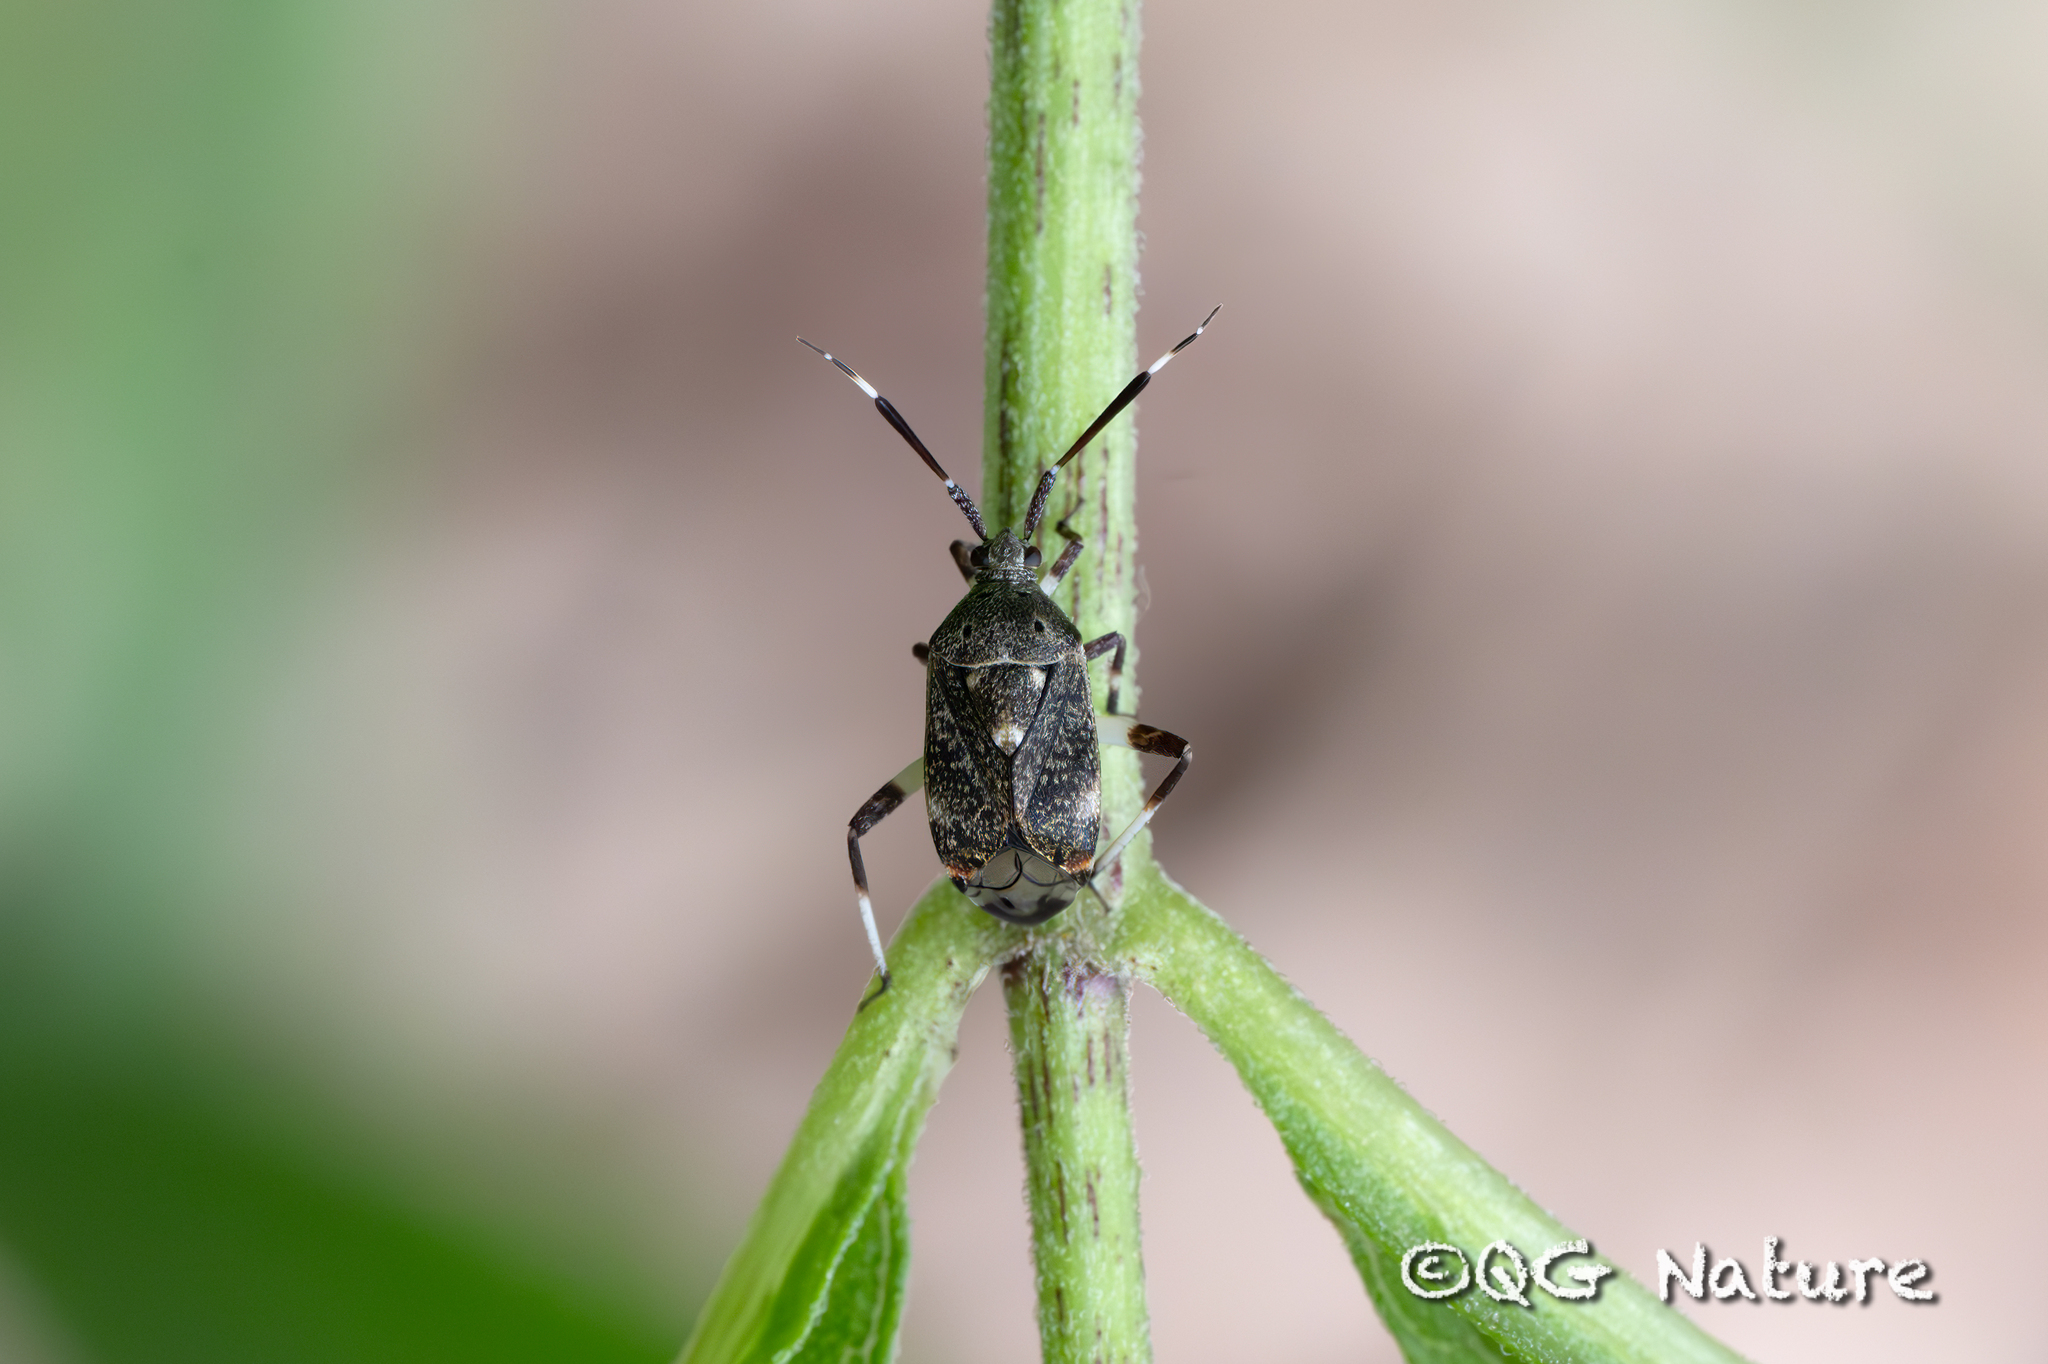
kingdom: Animalia
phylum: Arthropoda
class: Insecta
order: Hemiptera
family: Miridae
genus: Eurystylus
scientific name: Eurystylus coelestialium
